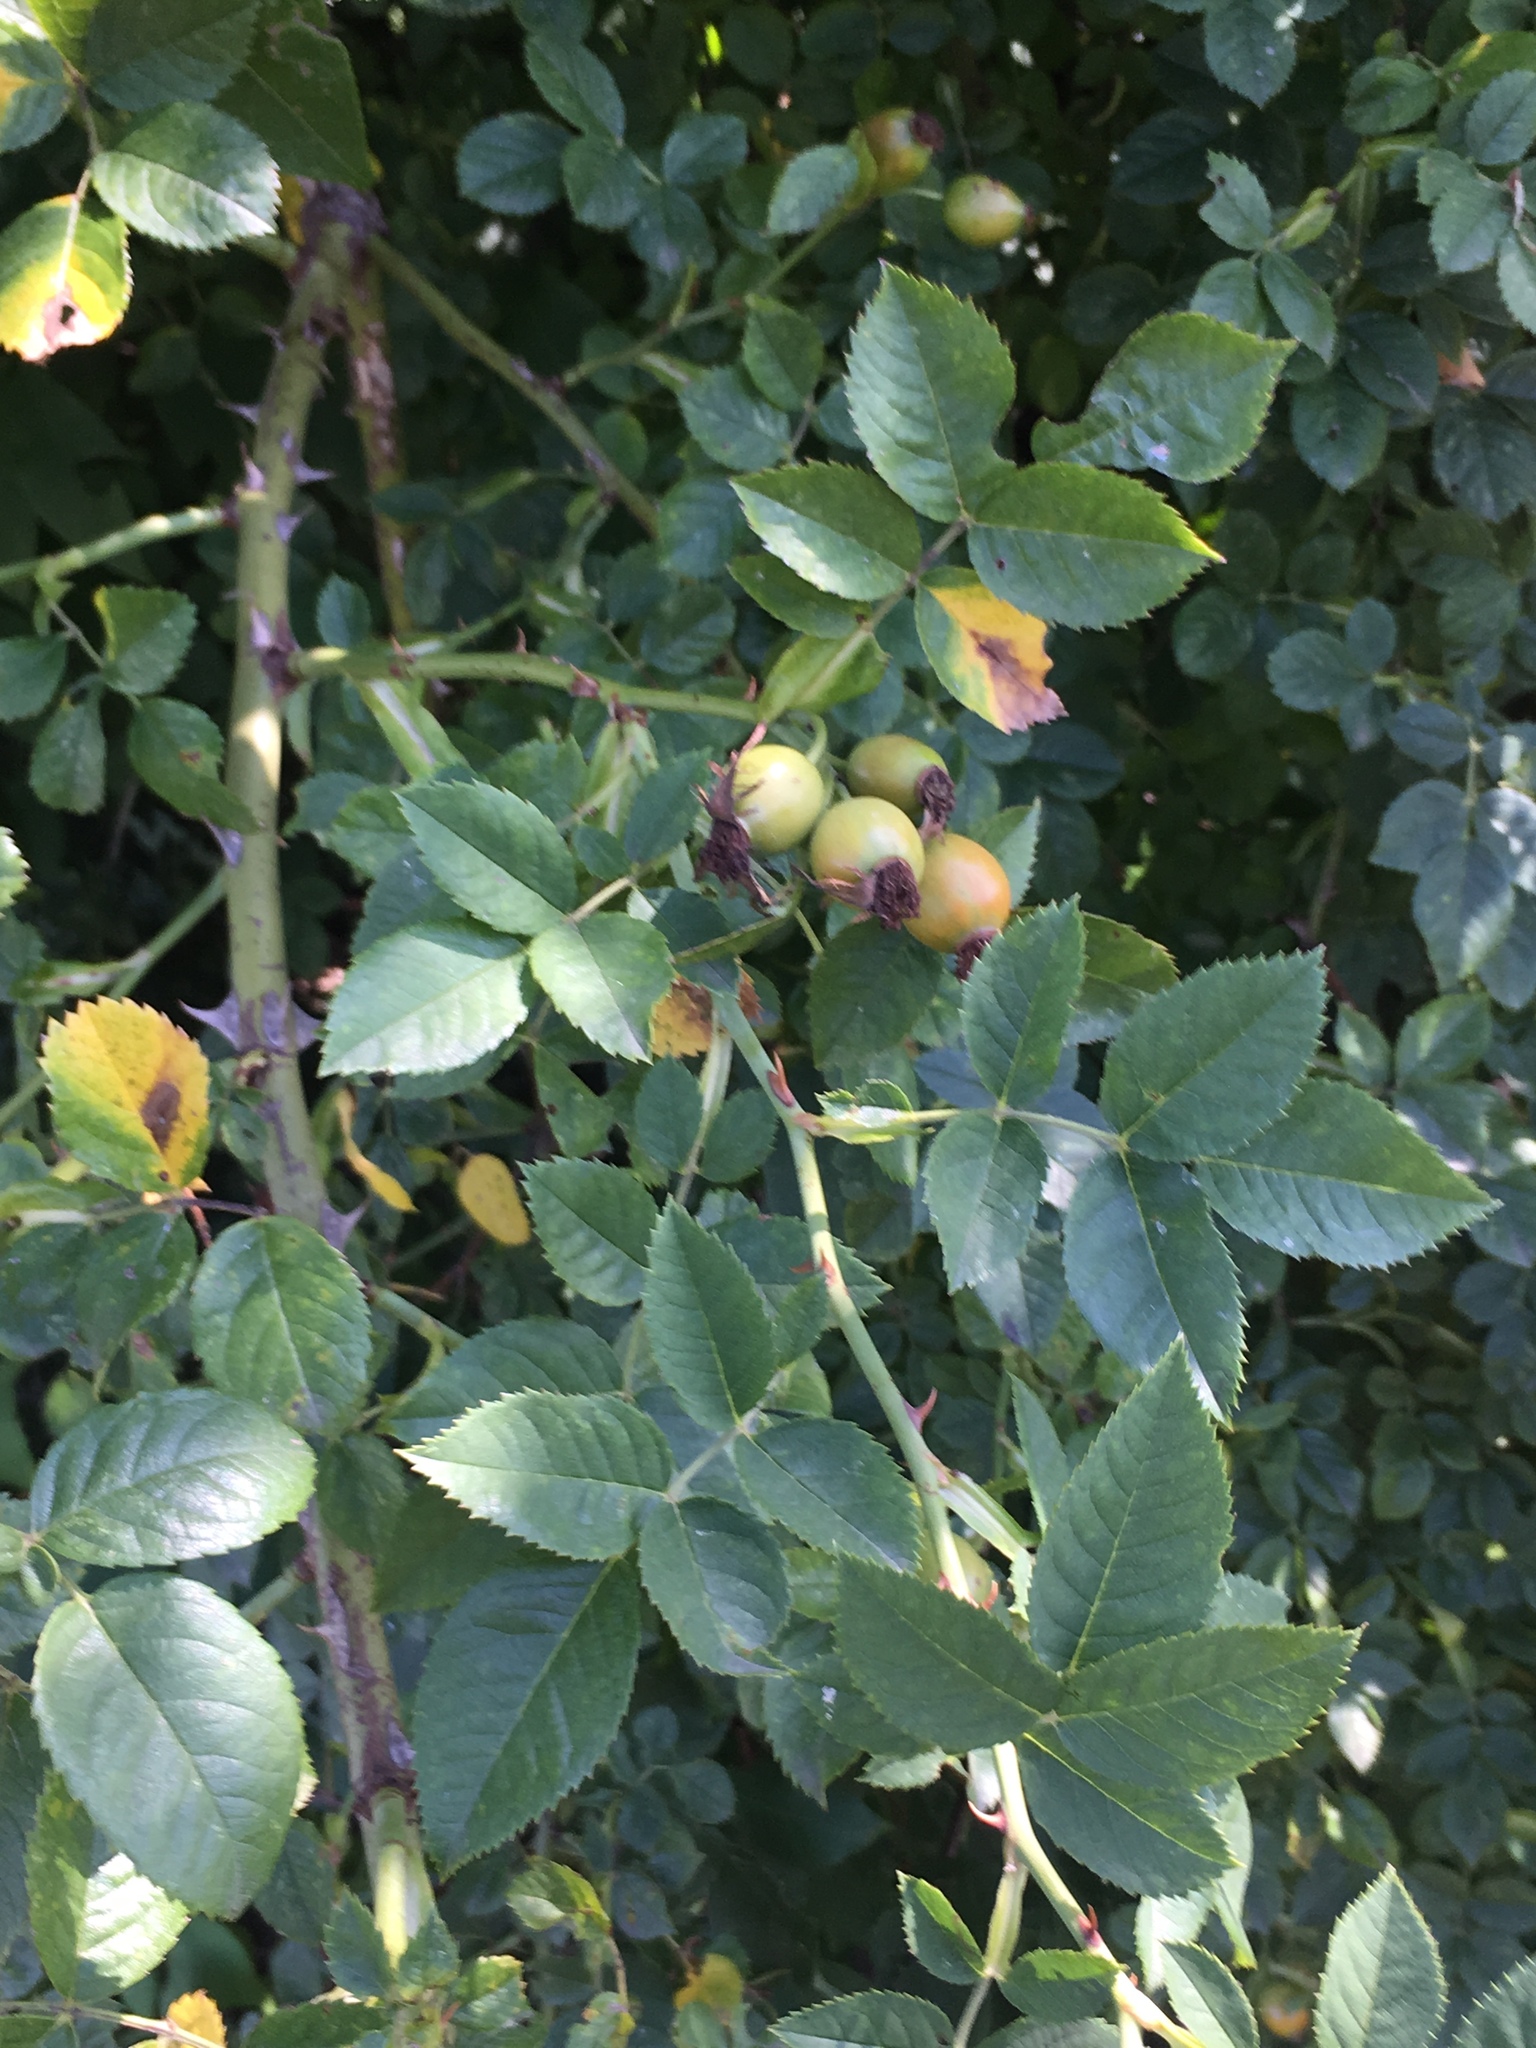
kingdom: Plantae
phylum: Tracheophyta
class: Magnoliopsida
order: Rosales
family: Rosaceae
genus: Rosa
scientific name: Rosa canina
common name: Dog rose
